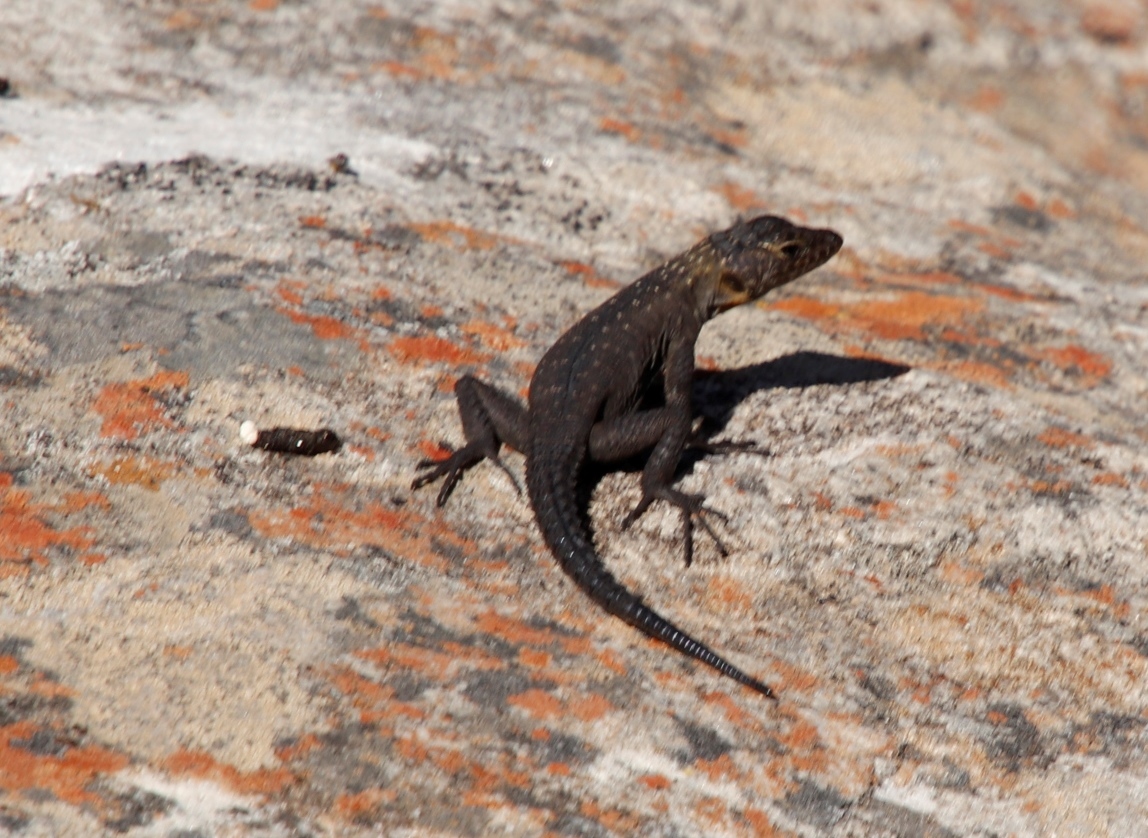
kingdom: Animalia
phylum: Chordata
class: Squamata
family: Cordylidae
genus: Hemicordylus
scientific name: Hemicordylus capensis
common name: Graceful crag lizard
